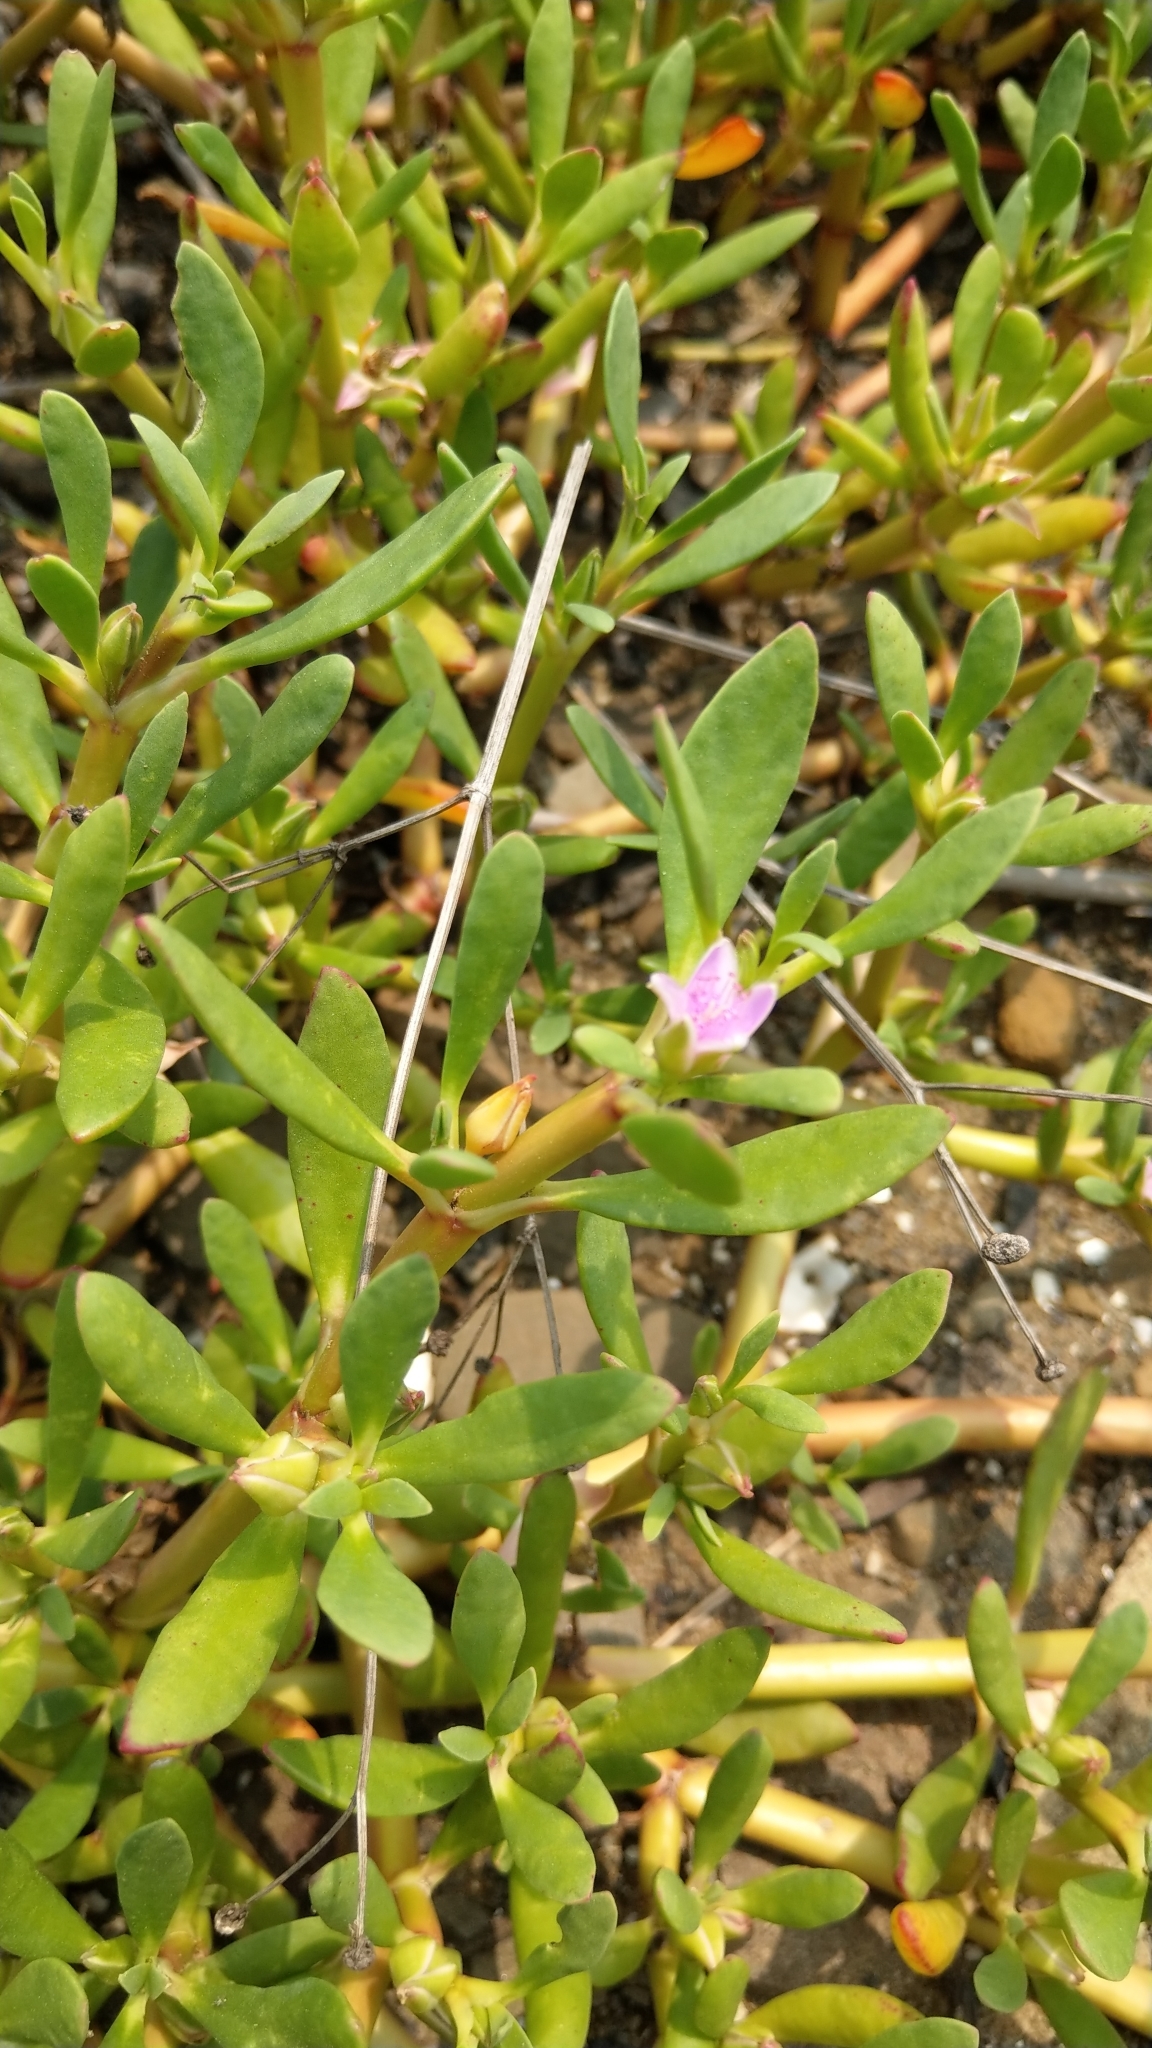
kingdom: Plantae
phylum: Tracheophyta
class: Magnoliopsida
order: Caryophyllales
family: Aizoaceae
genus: Sesuvium
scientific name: Sesuvium portulacastrum
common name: Sea-purslane
